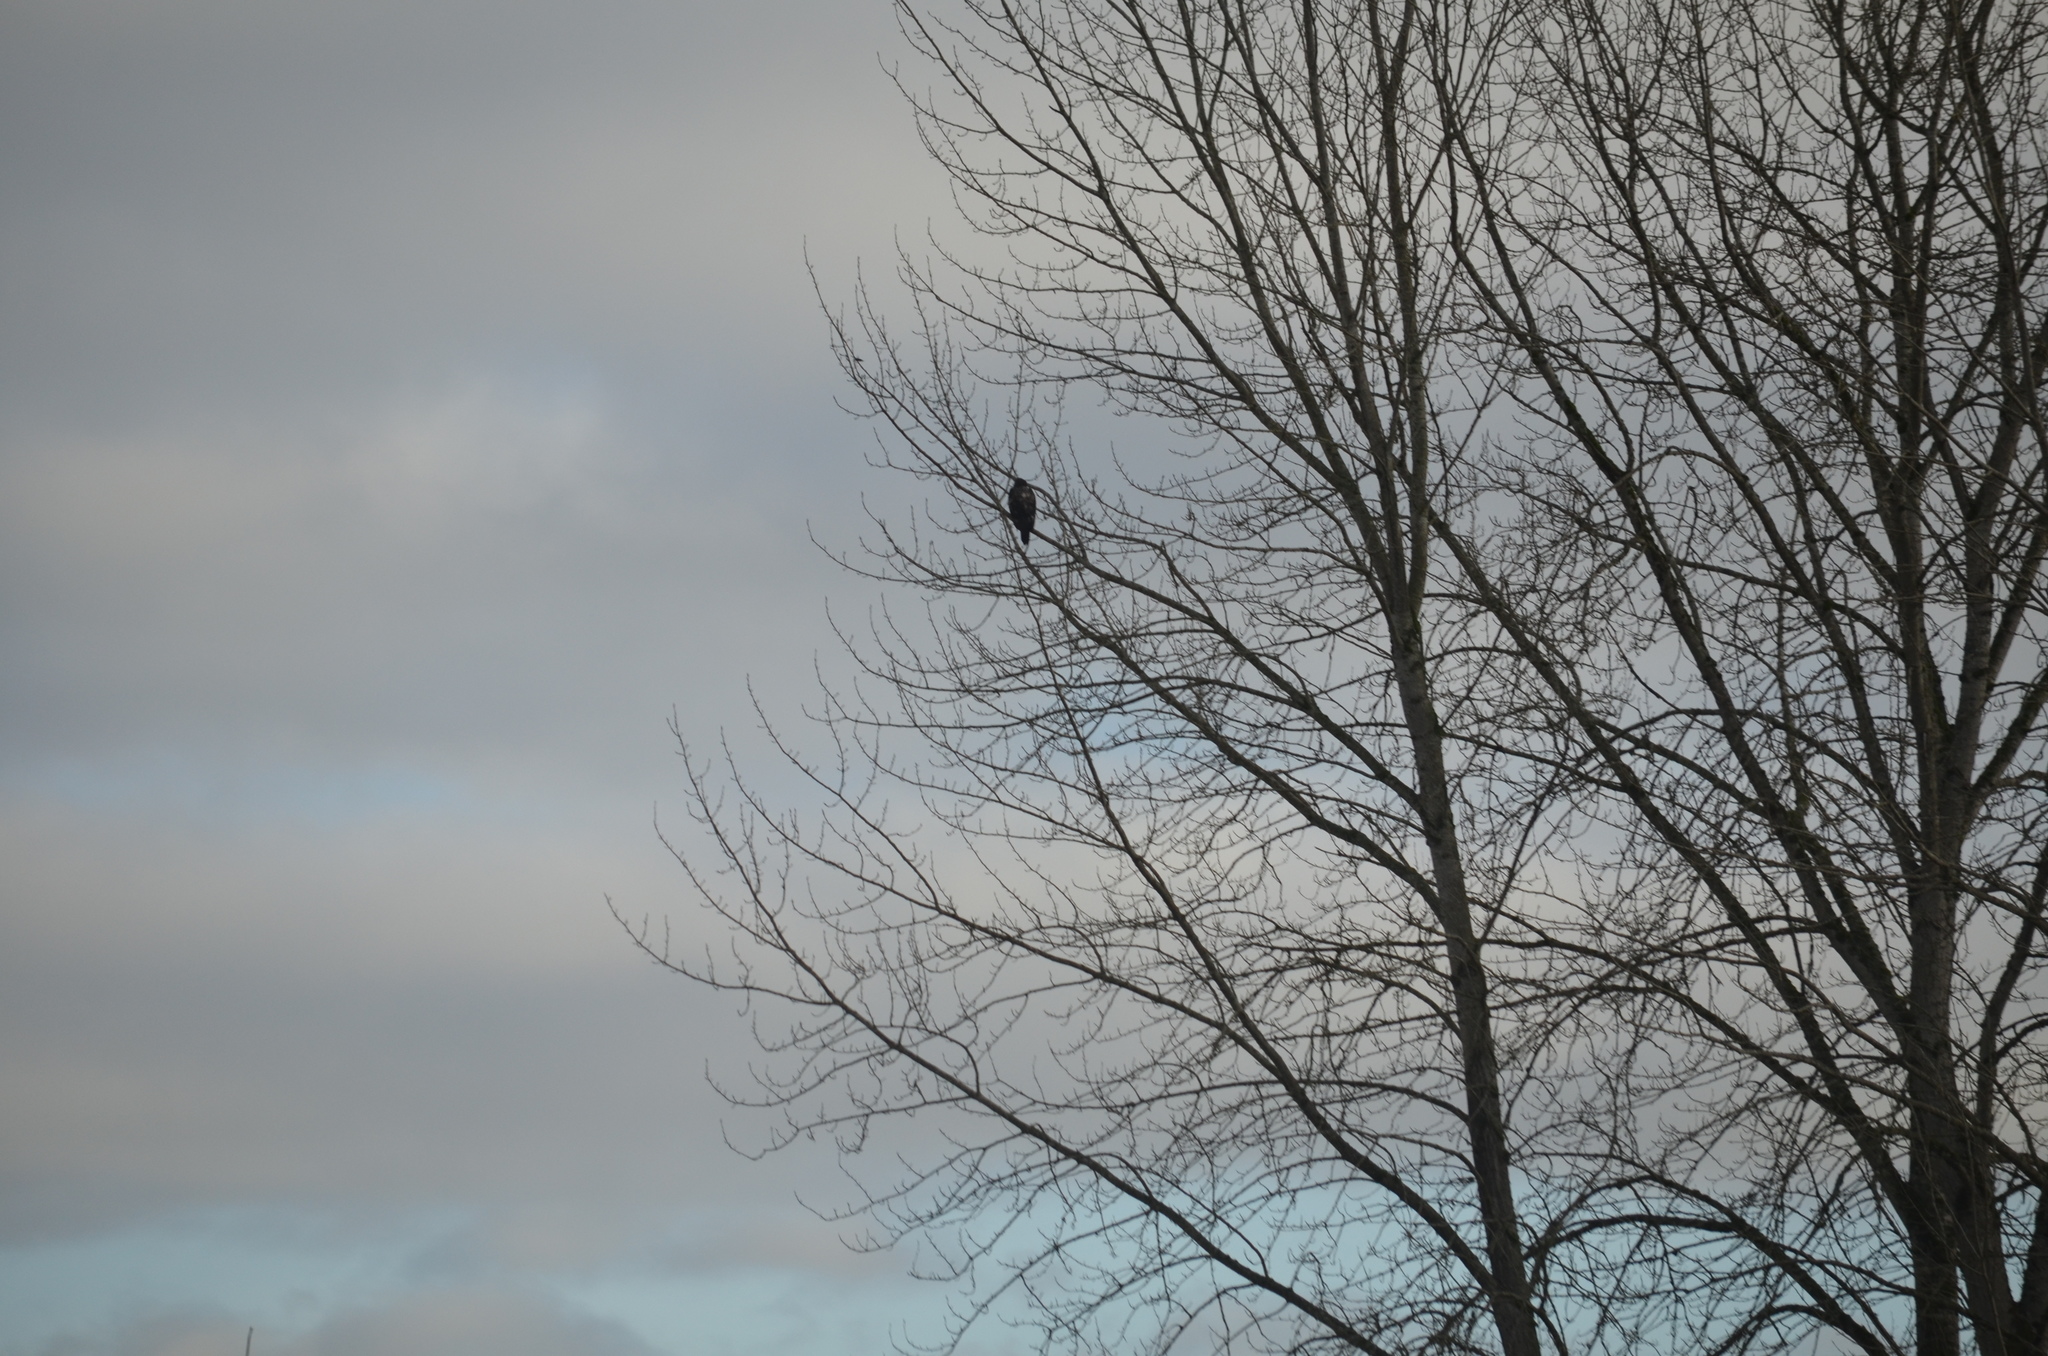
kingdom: Animalia
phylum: Chordata
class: Aves
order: Accipitriformes
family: Accipitridae
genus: Buteo
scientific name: Buteo jamaicensis
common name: Red-tailed hawk
